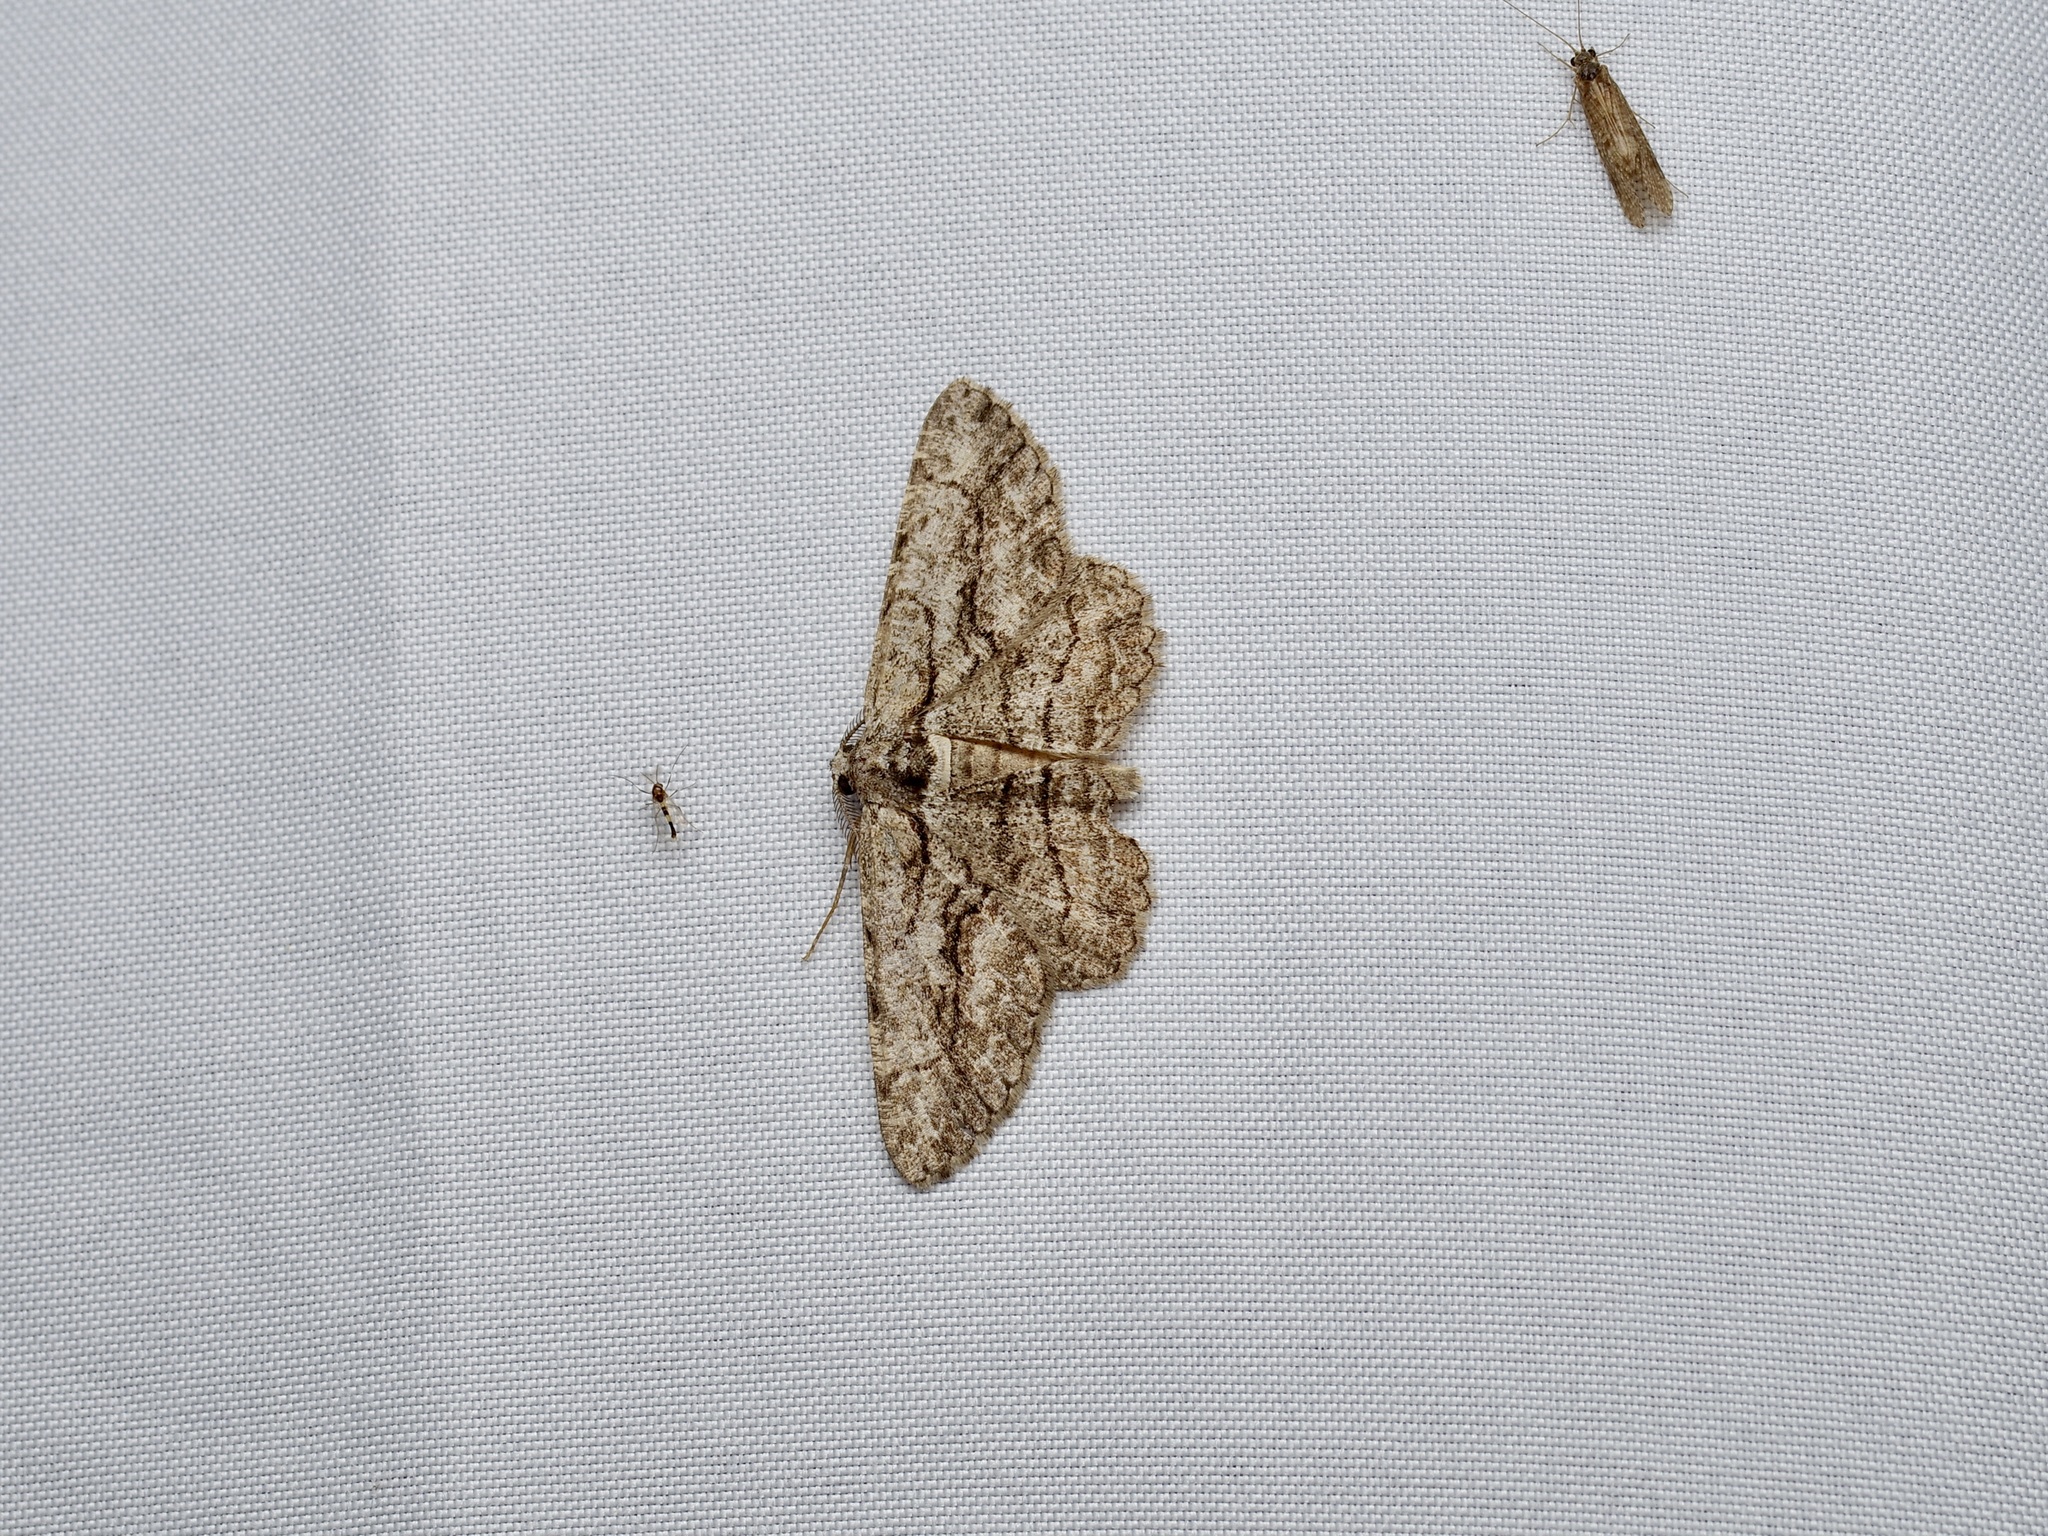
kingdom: Animalia
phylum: Arthropoda
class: Insecta
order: Lepidoptera
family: Geometridae
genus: Anavitrinella
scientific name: Anavitrinella pampinaria
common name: Common gray
